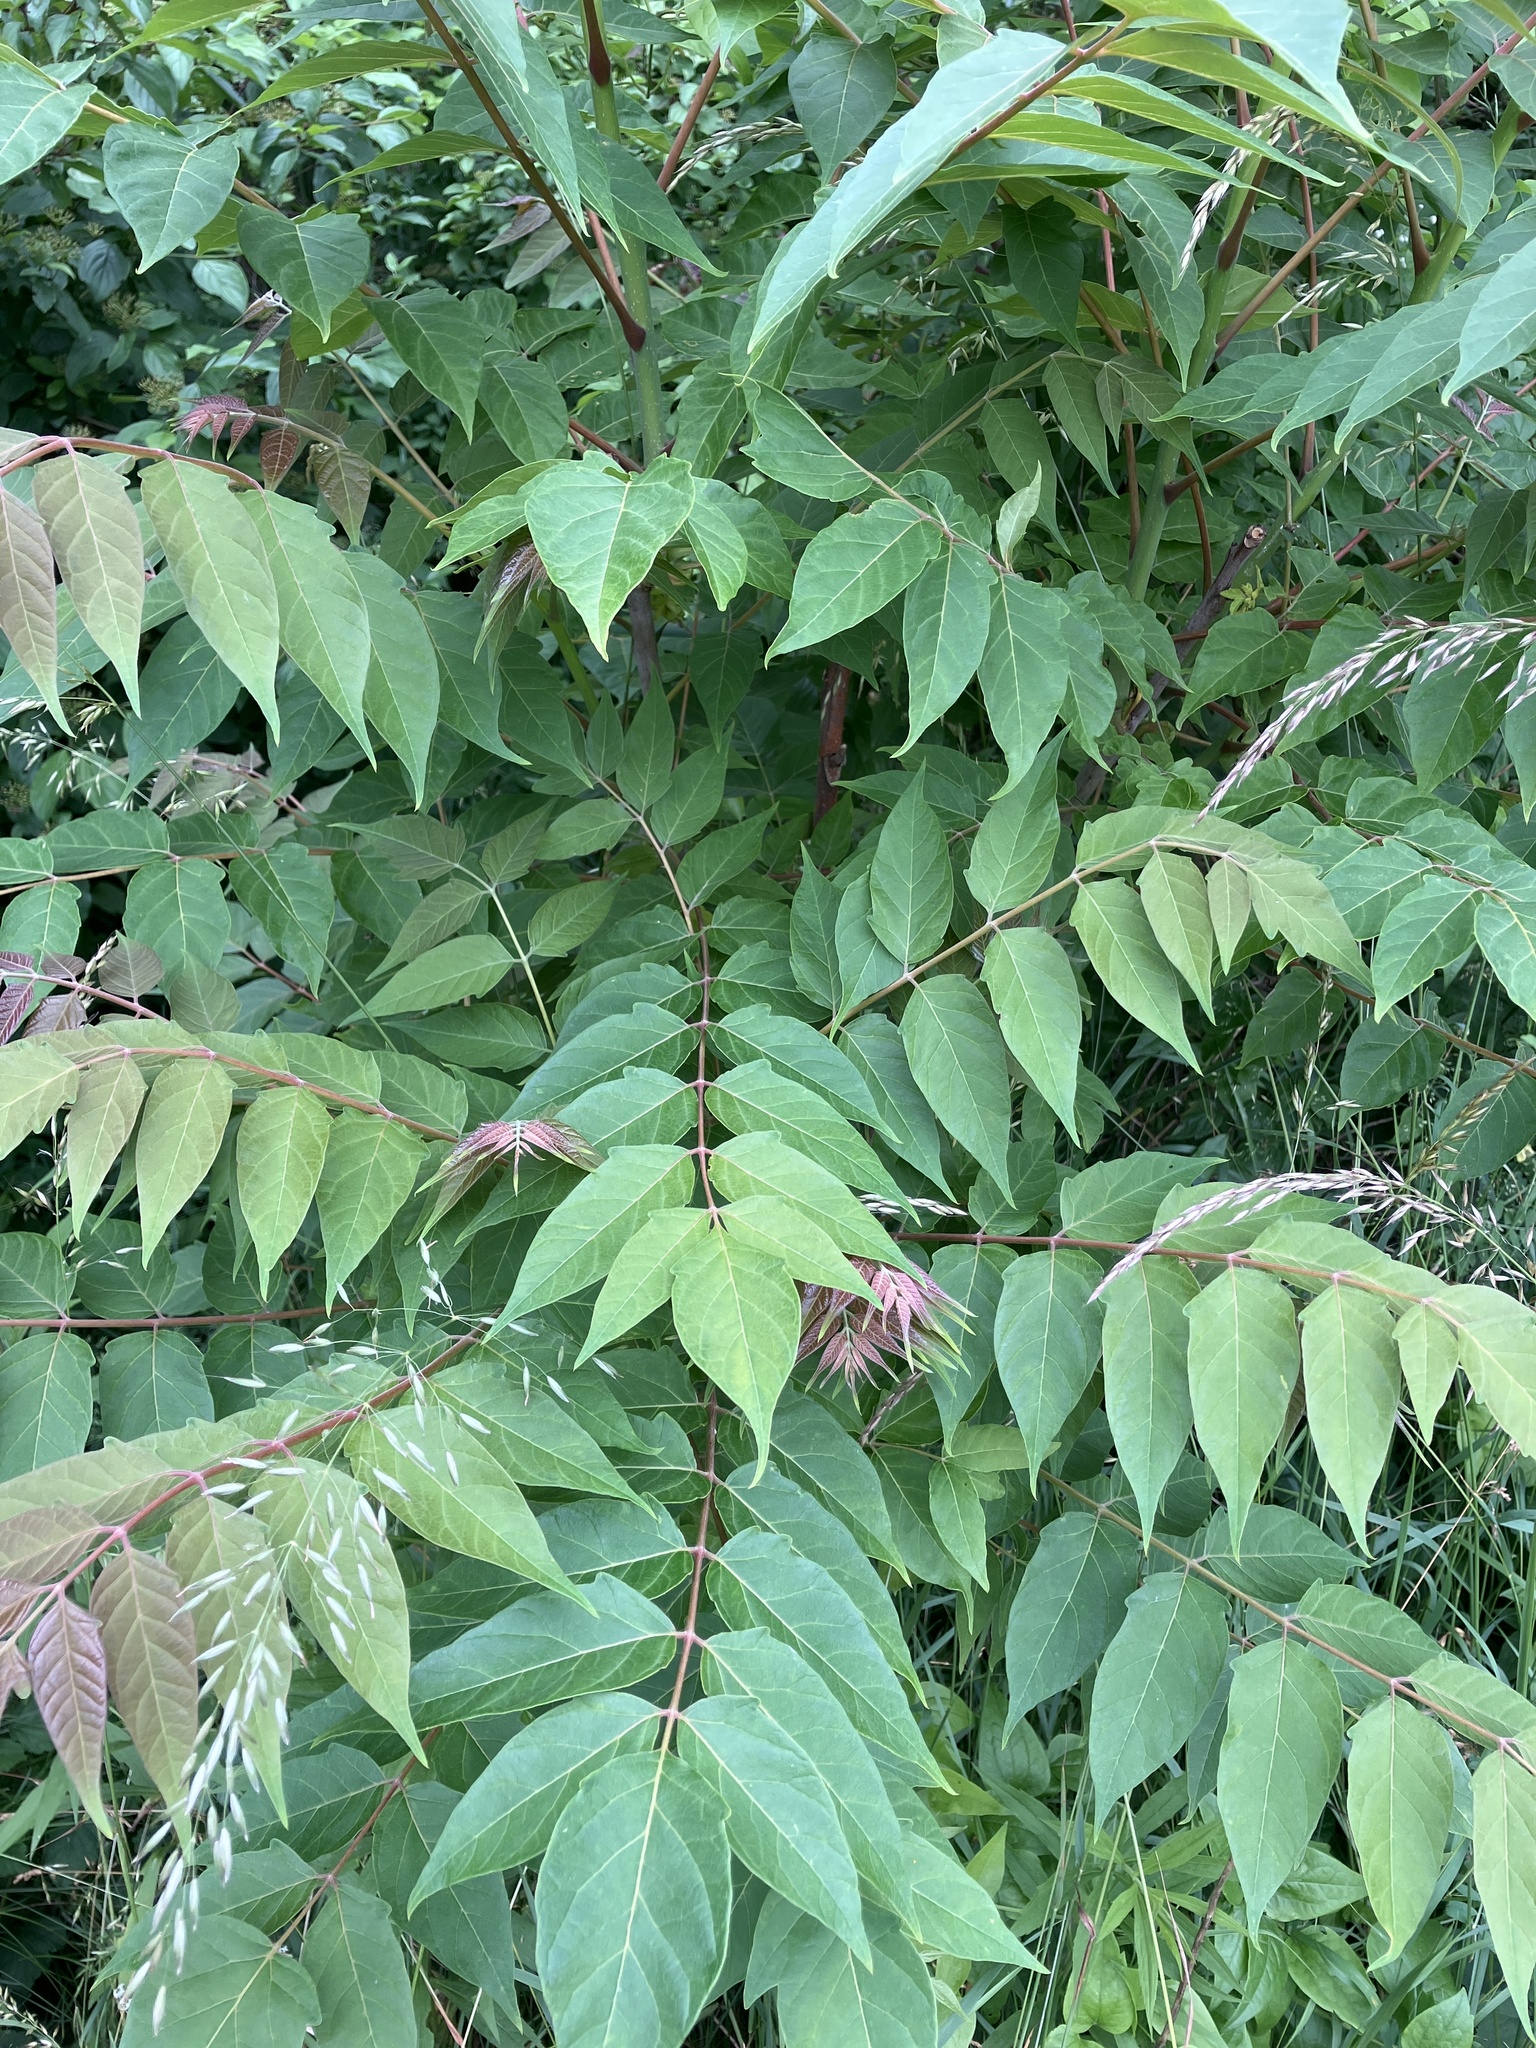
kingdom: Plantae
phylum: Tracheophyta
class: Magnoliopsida
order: Sapindales
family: Simaroubaceae
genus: Ailanthus
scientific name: Ailanthus altissima
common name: Tree-of-heaven
